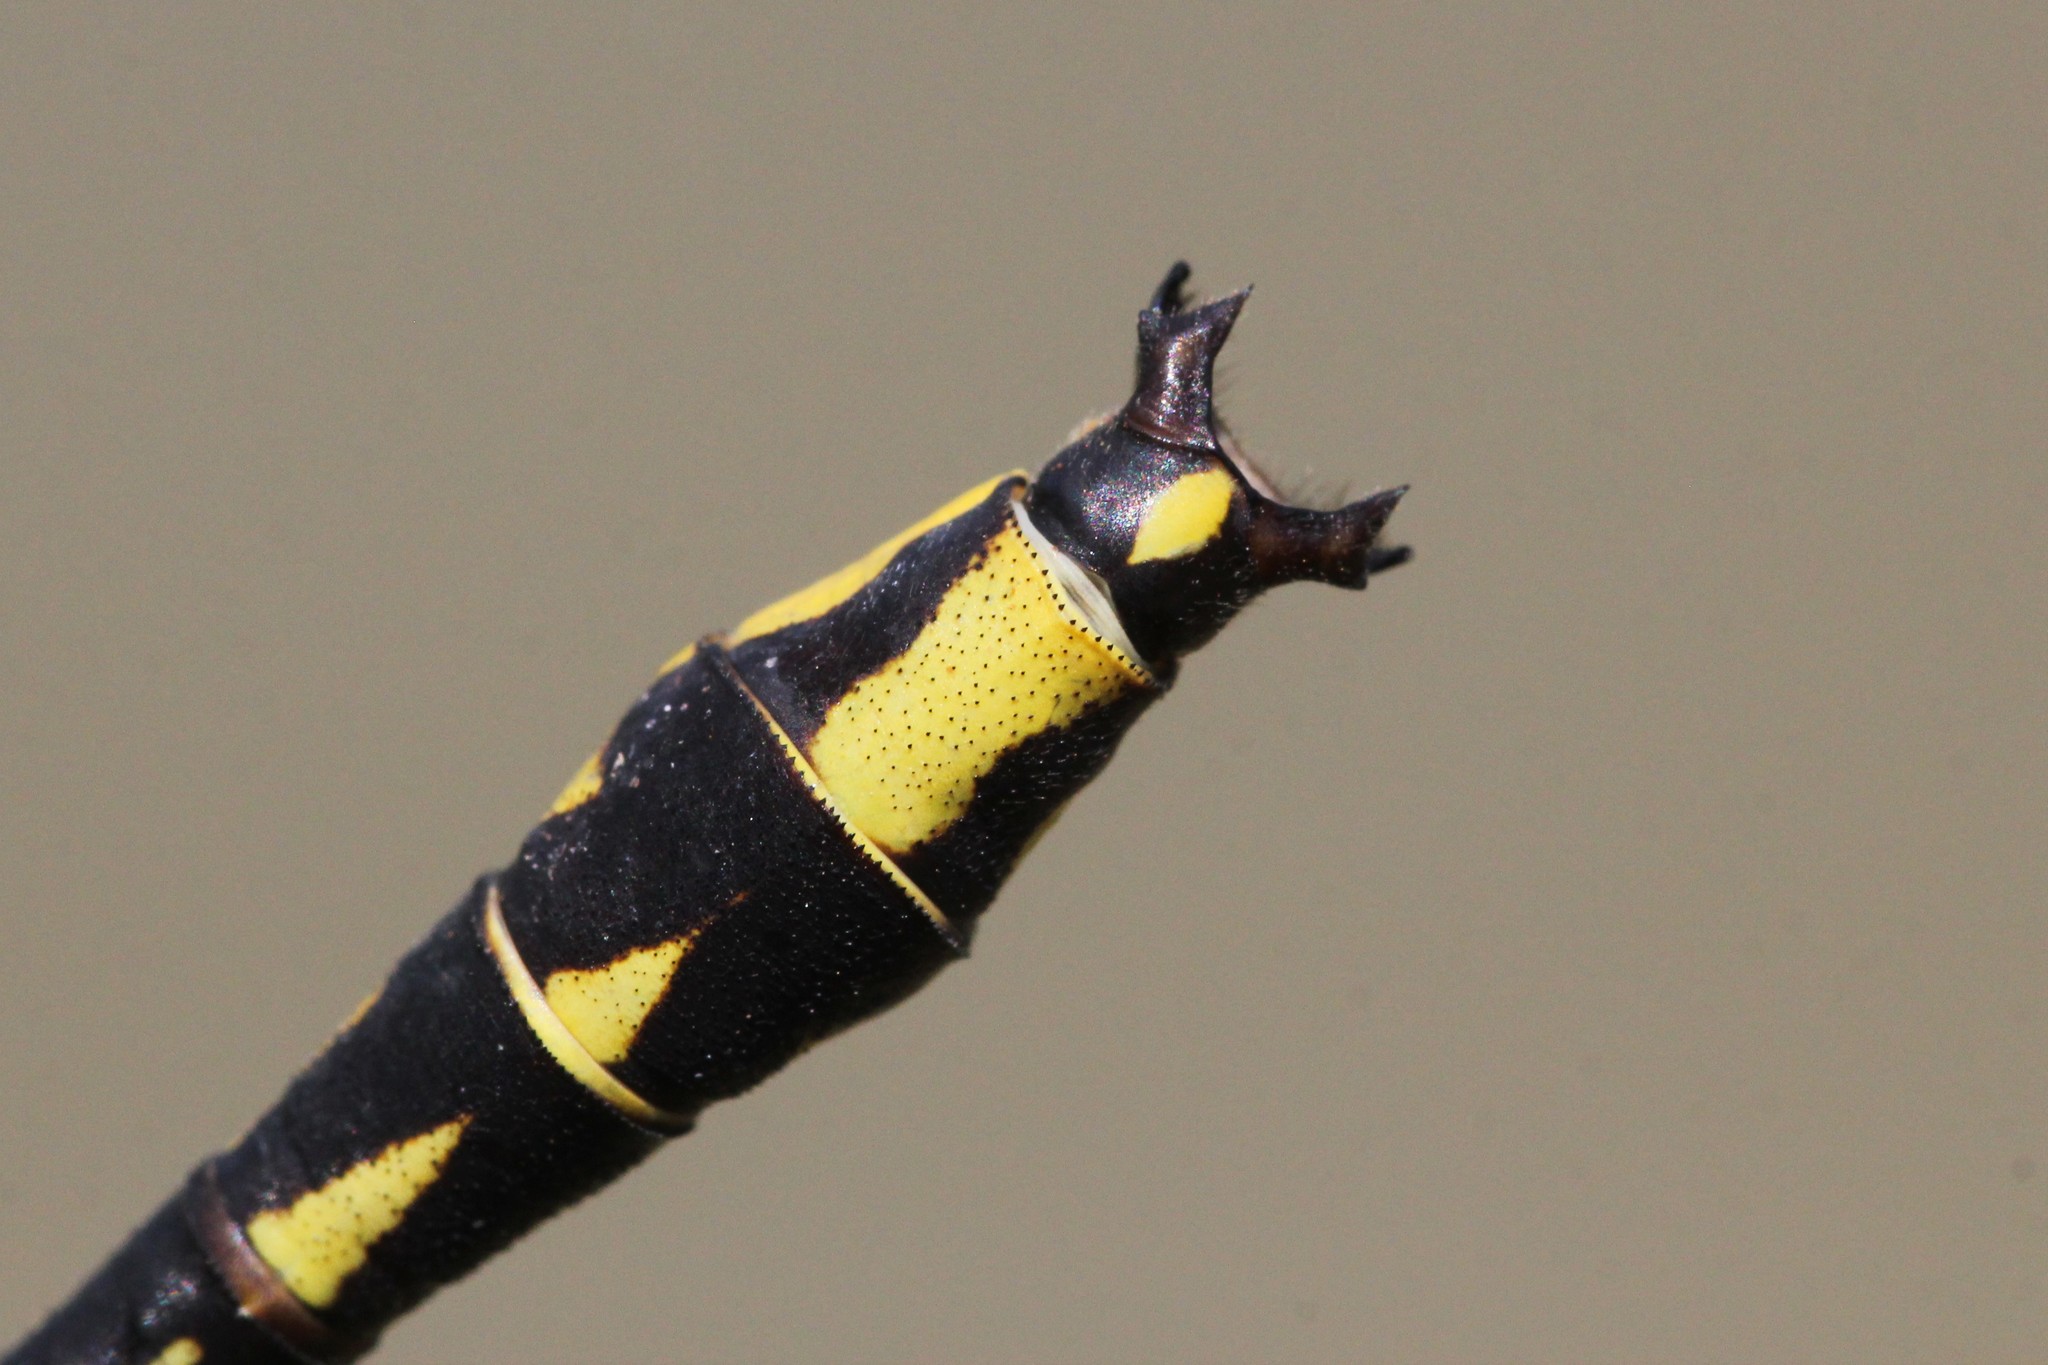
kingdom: Animalia
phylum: Arthropoda
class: Insecta
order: Odonata
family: Gomphidae
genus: Phanogomphus
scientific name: Phanogomphus graslinellus
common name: Pronghorn clubtail
